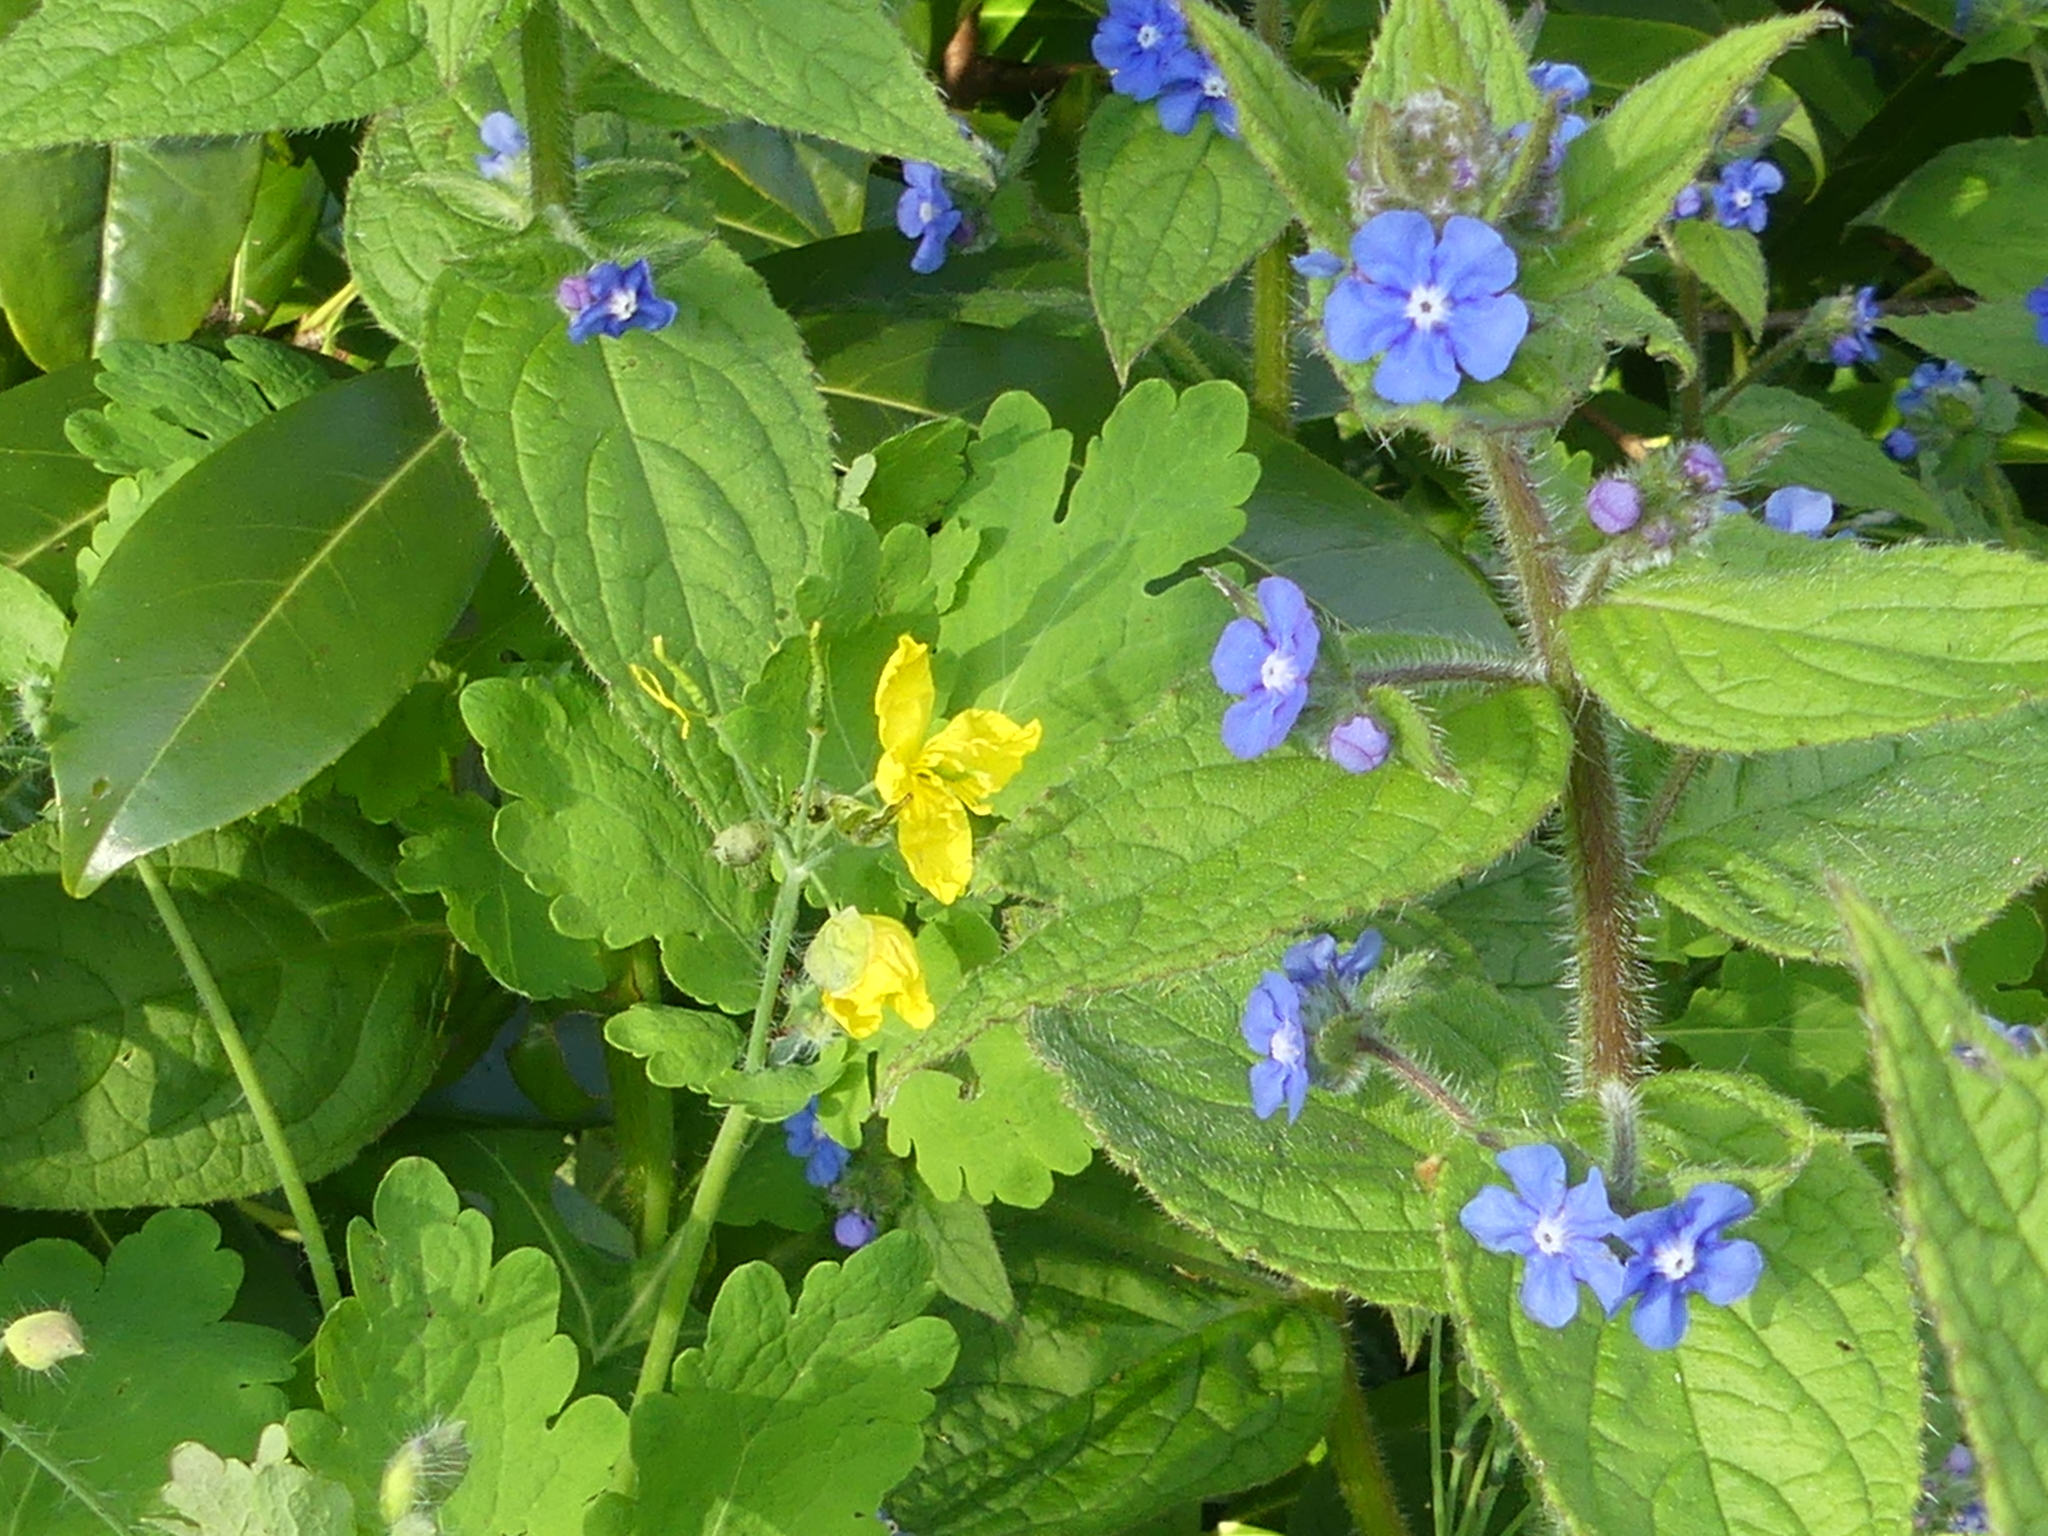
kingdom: Plantae
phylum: Tracheophyta
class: Magnoliopsida
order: Ranunculales
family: Papaveraceae
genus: Chelidonium
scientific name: Chelidonium majus
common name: Greater celandine
